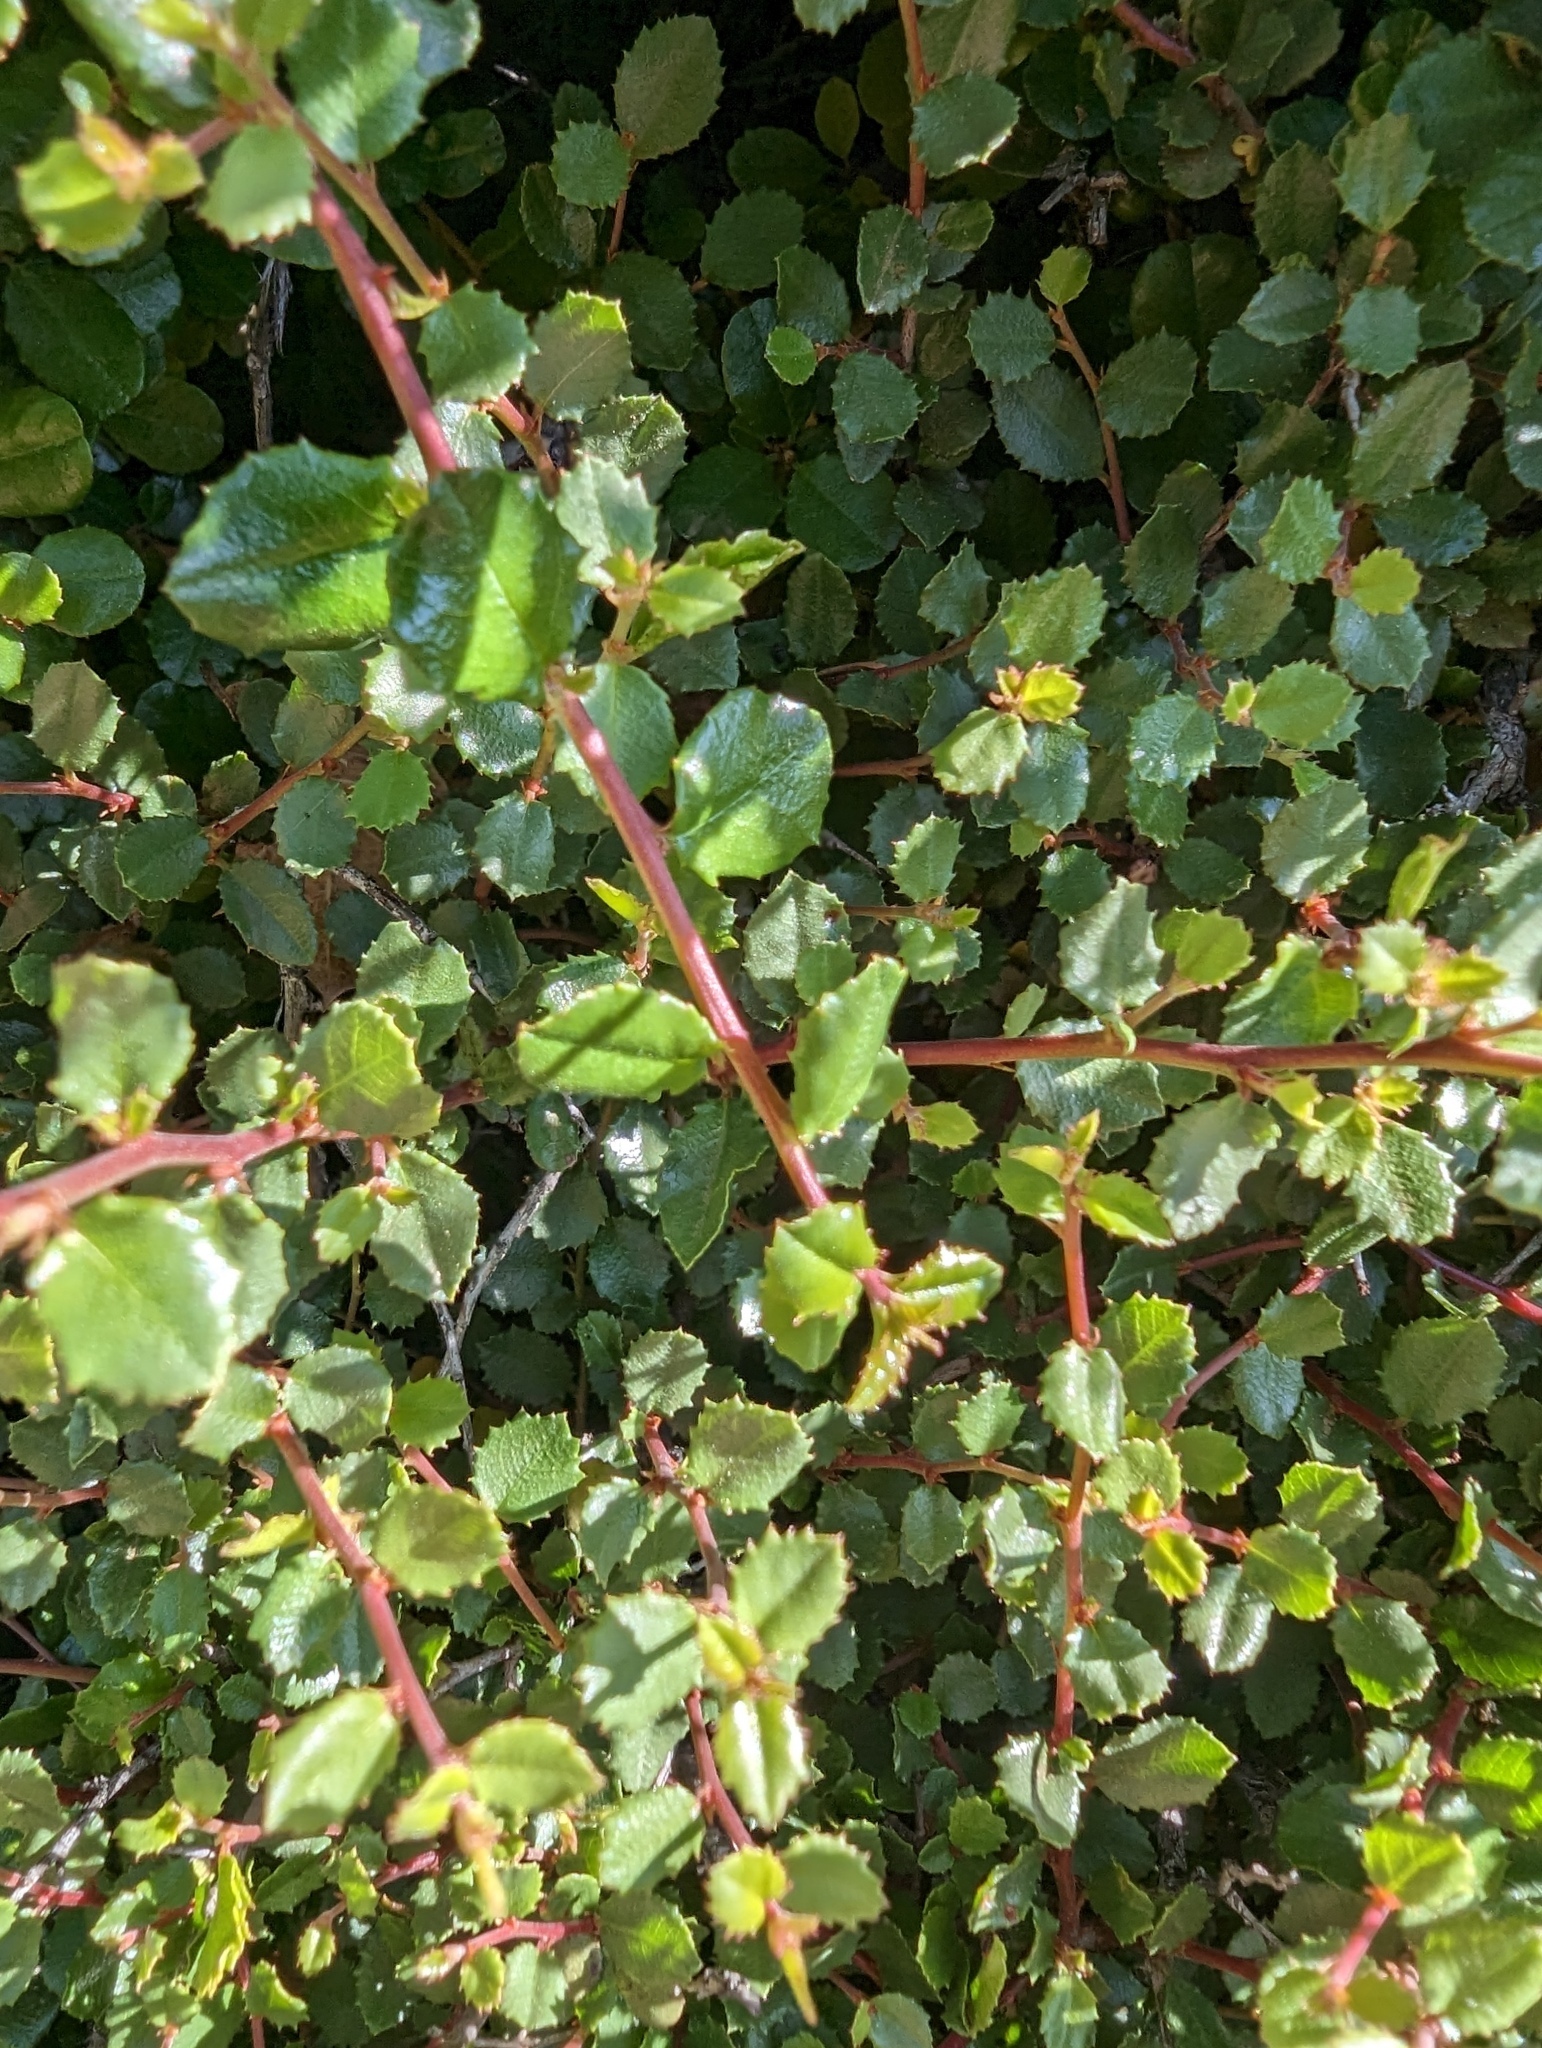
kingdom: Plantae
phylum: Tracheophyta
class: Magnoliopsida
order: Rosales
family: Rhamnaceae
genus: Endotropis
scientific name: Endotropis crocea
